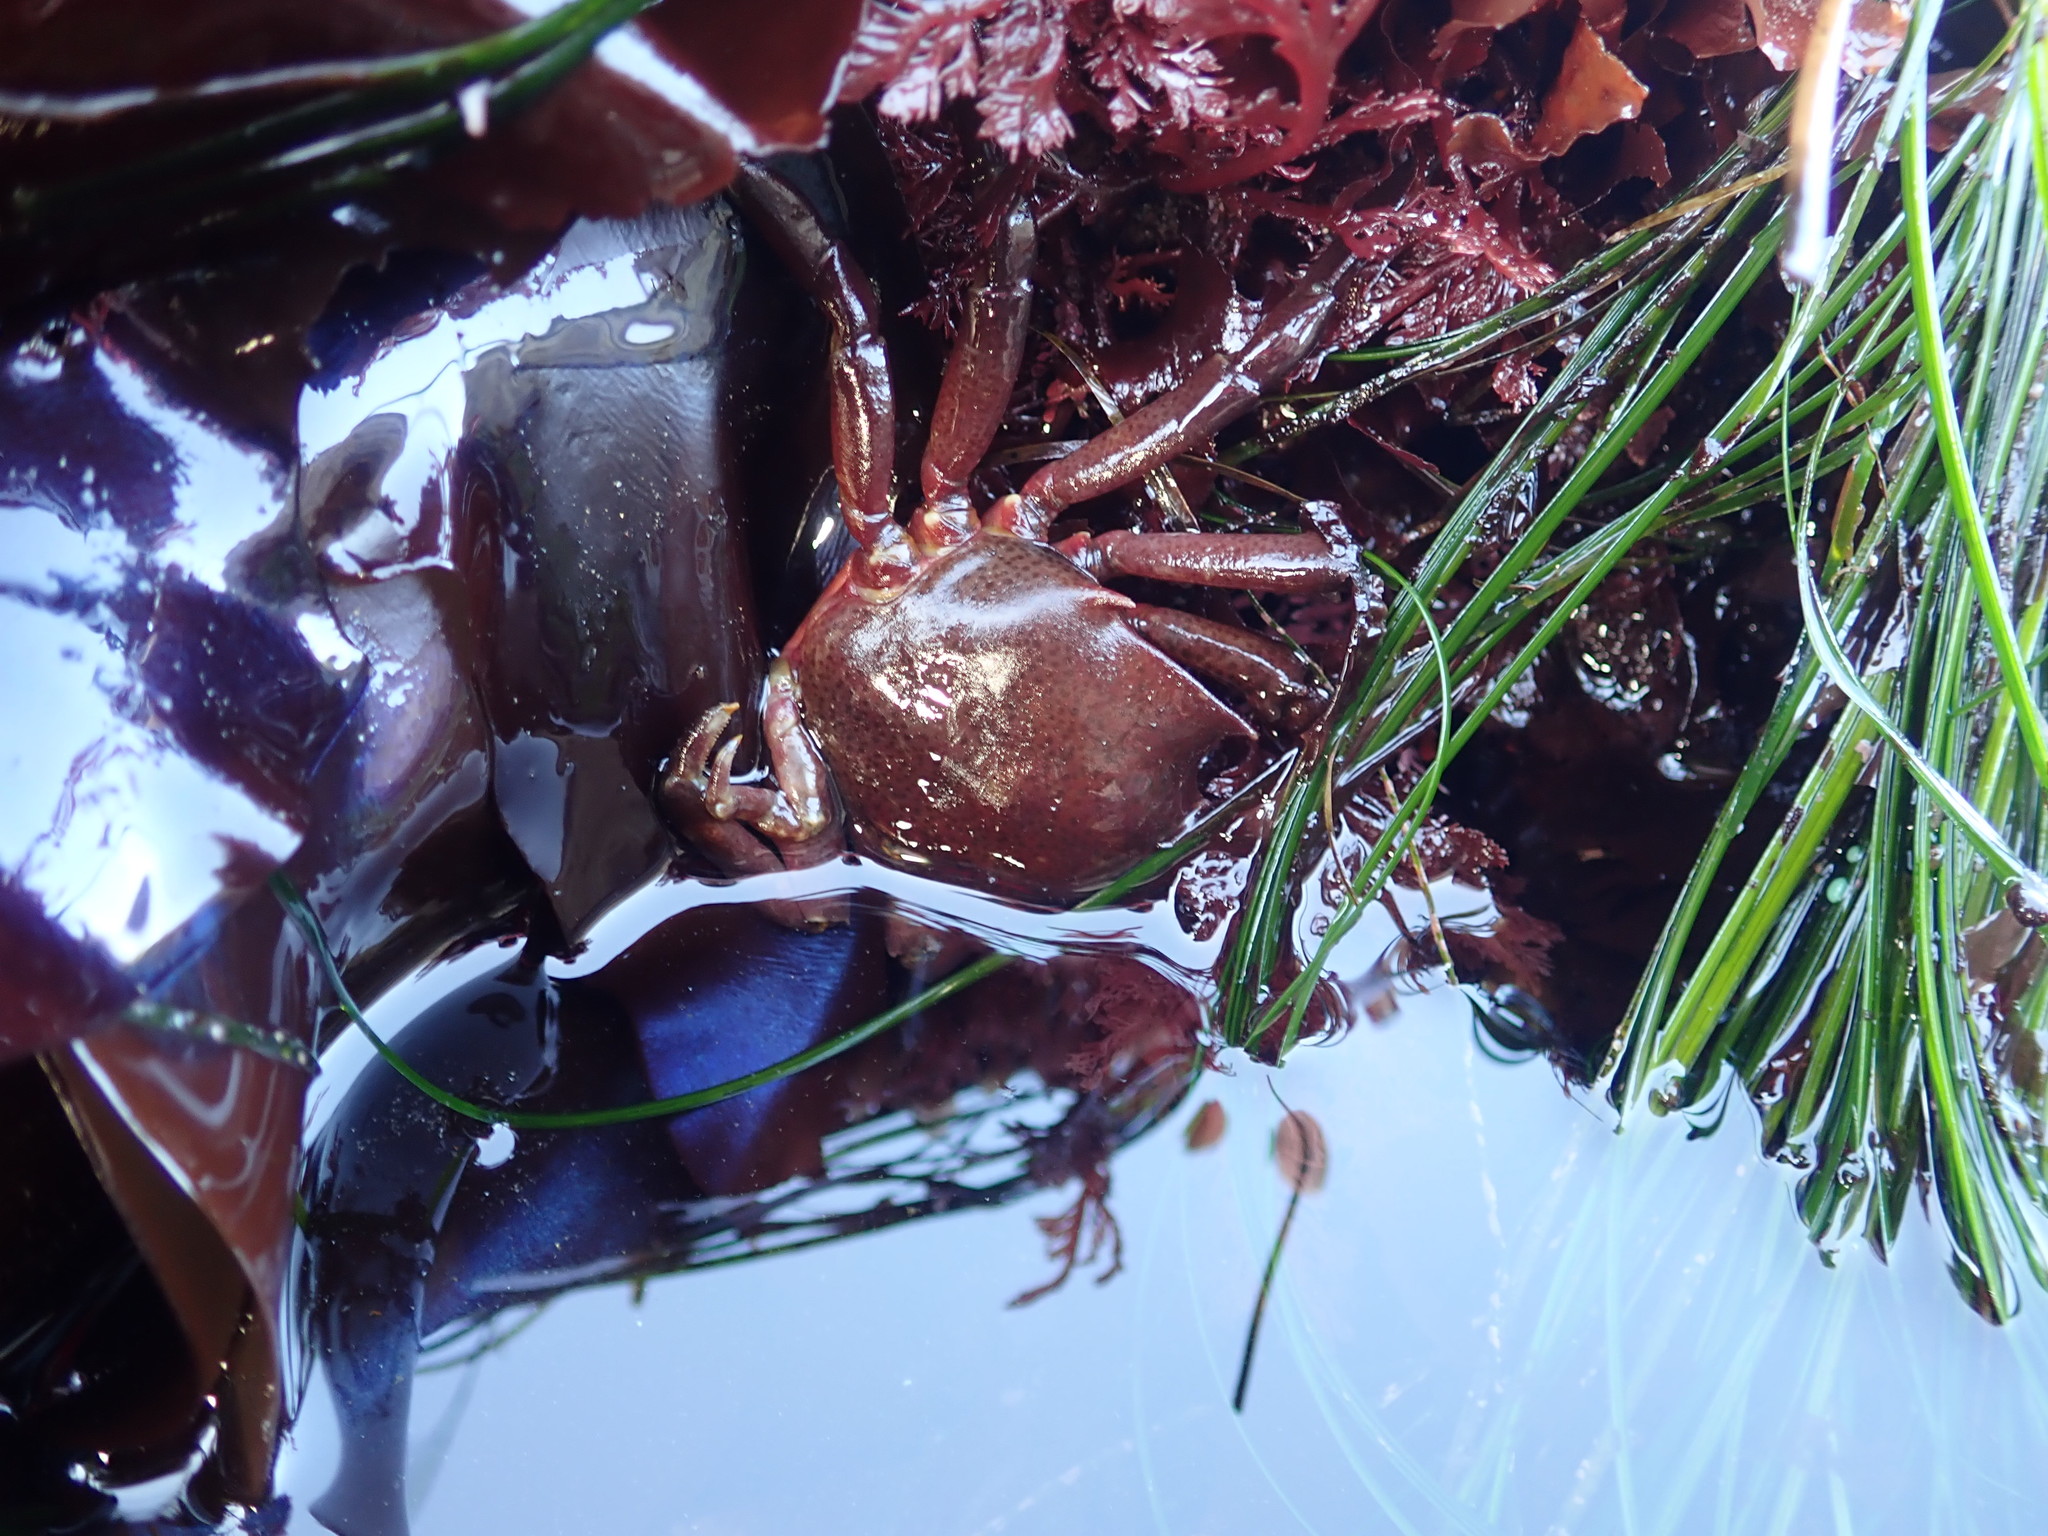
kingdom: Animalia
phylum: Arthropoda
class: Malacostraca
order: Decapoda
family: Epialtidae
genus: Pugettia
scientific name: Pugettia producta
